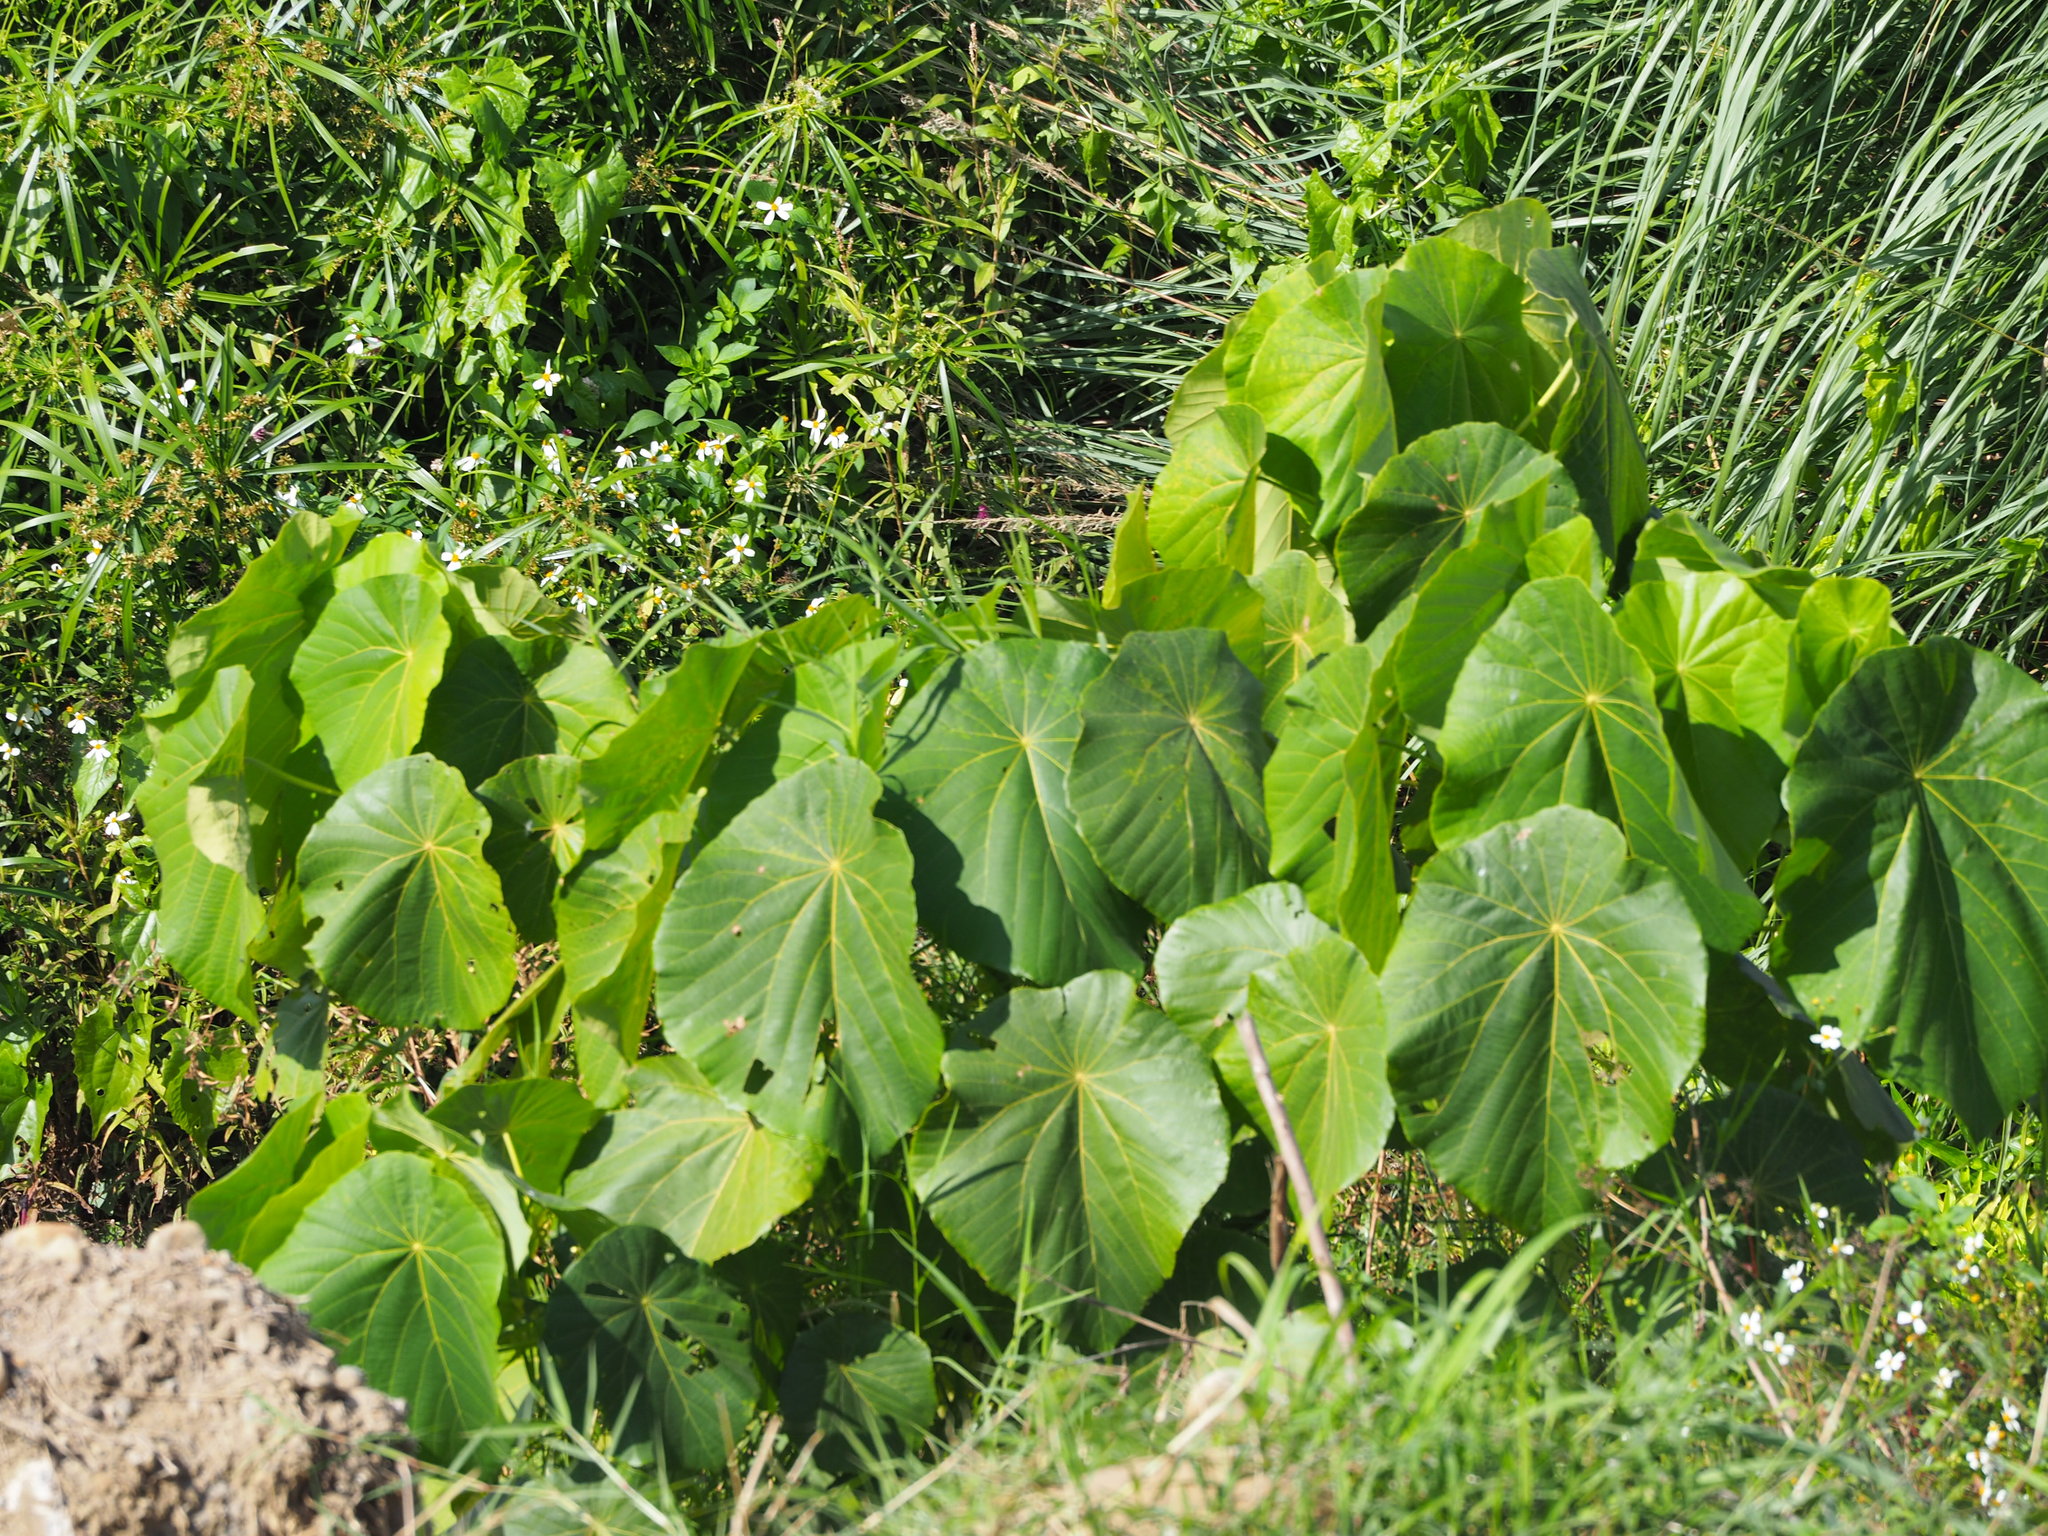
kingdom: Plantae
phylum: Tracheophyta
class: Magnoliopsida
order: Malpighiales
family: Euphorbiaceae
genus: Macaranga
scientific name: Macaranga tanarius
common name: Parasol leaf tree
